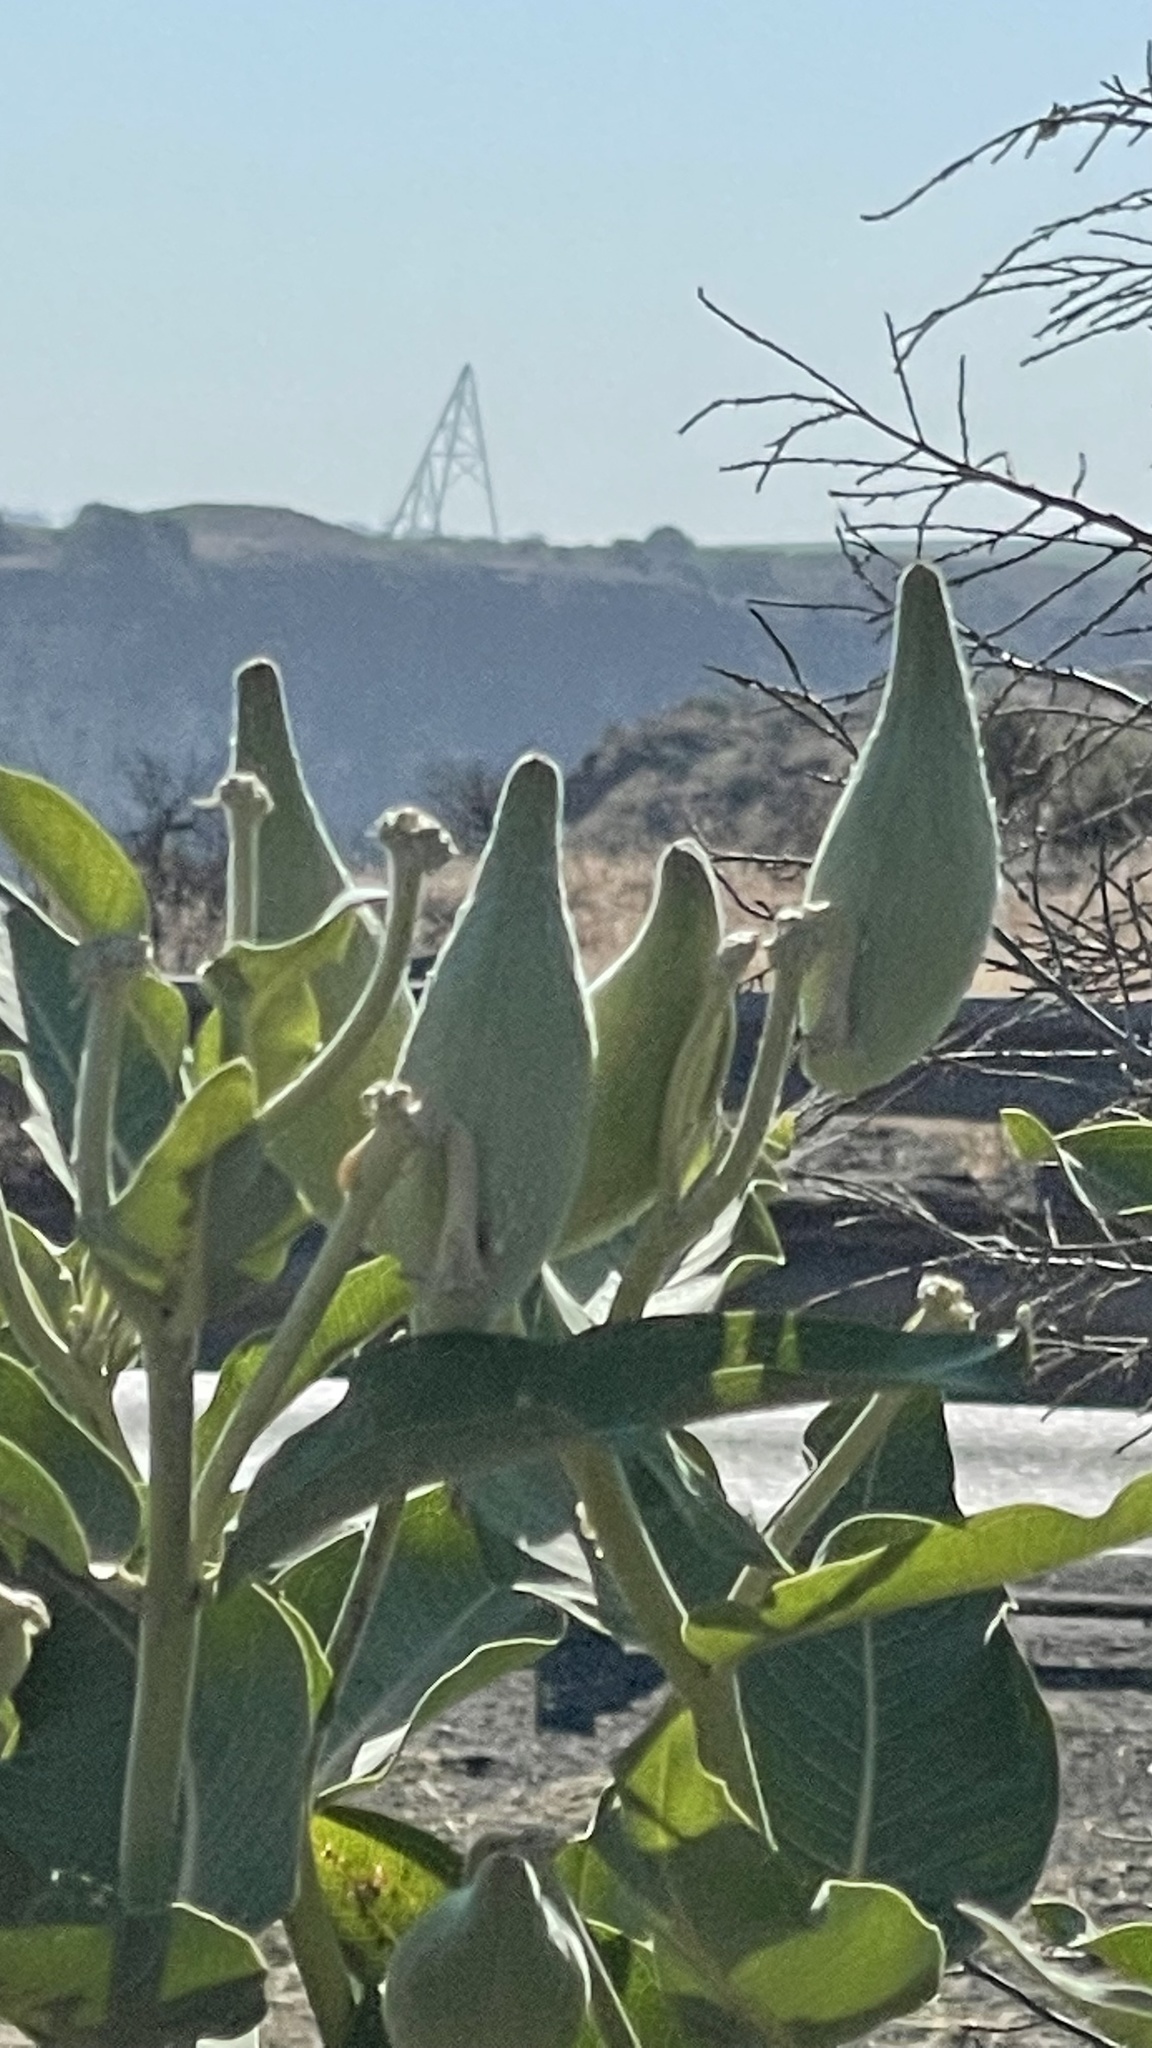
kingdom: Plantae
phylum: Tracheophyta
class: Magnoliopsida
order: Gentianales
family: Apocynaceae
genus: Asclepias
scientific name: Asclepias speciosa
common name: Showy milkweed
